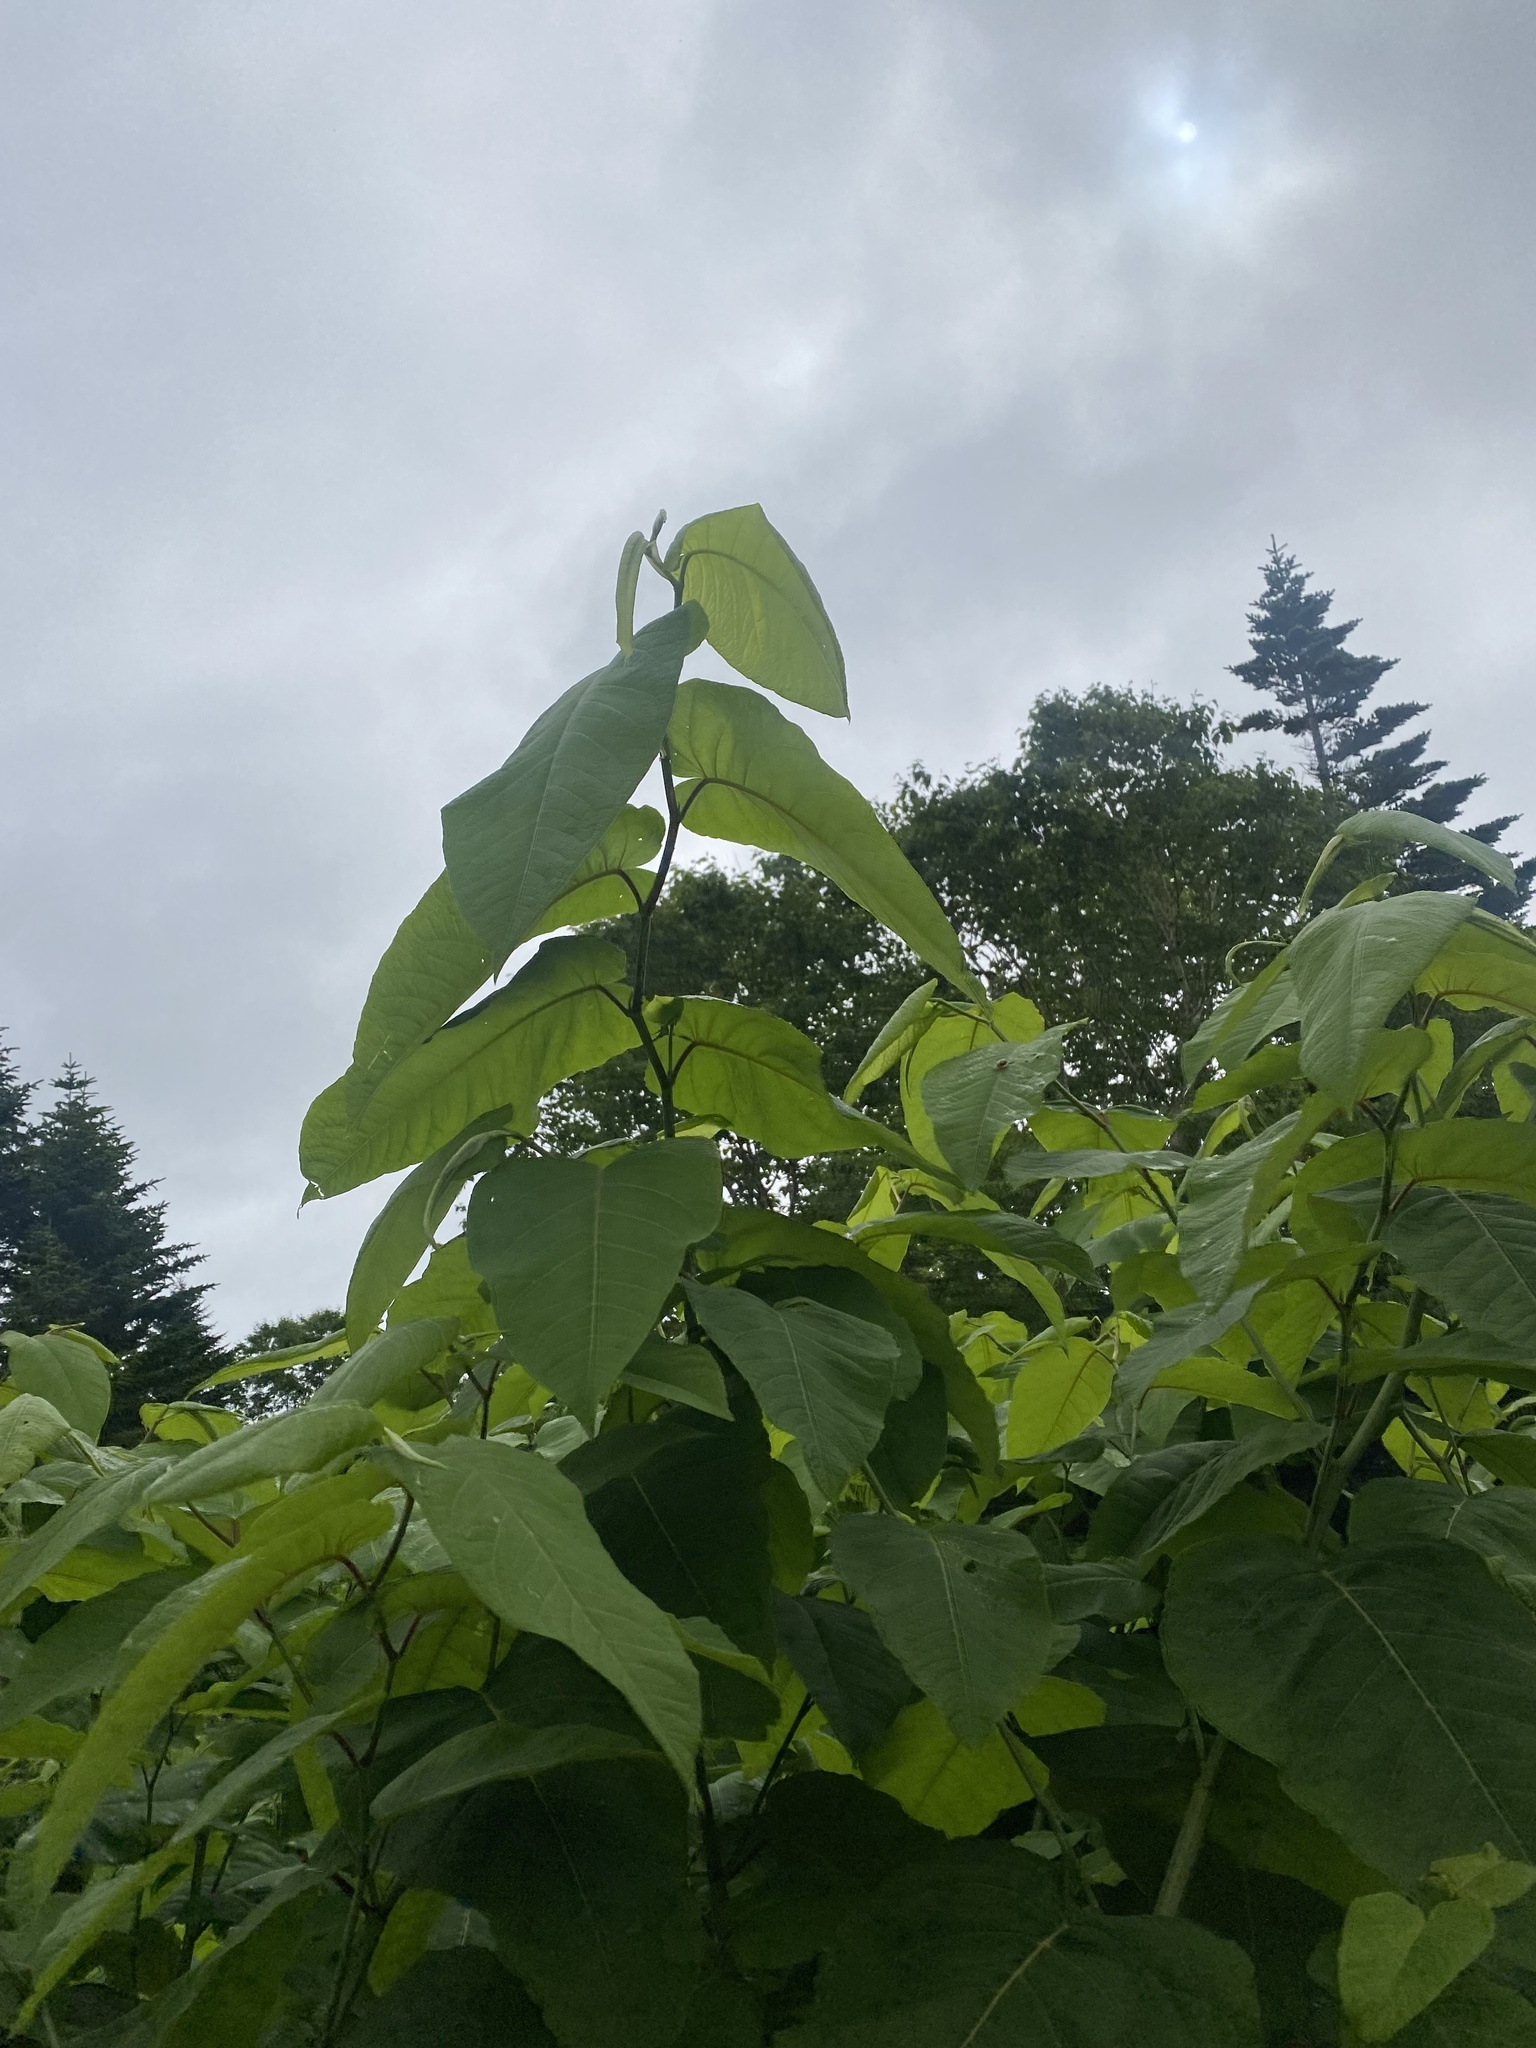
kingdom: Plantae
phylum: Tracheophyta
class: Magnoliopsida
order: Caryophyllales
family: Polygonaceae
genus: Reynoutria
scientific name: Reynoutria sachalinensis
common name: Giant knotweed
